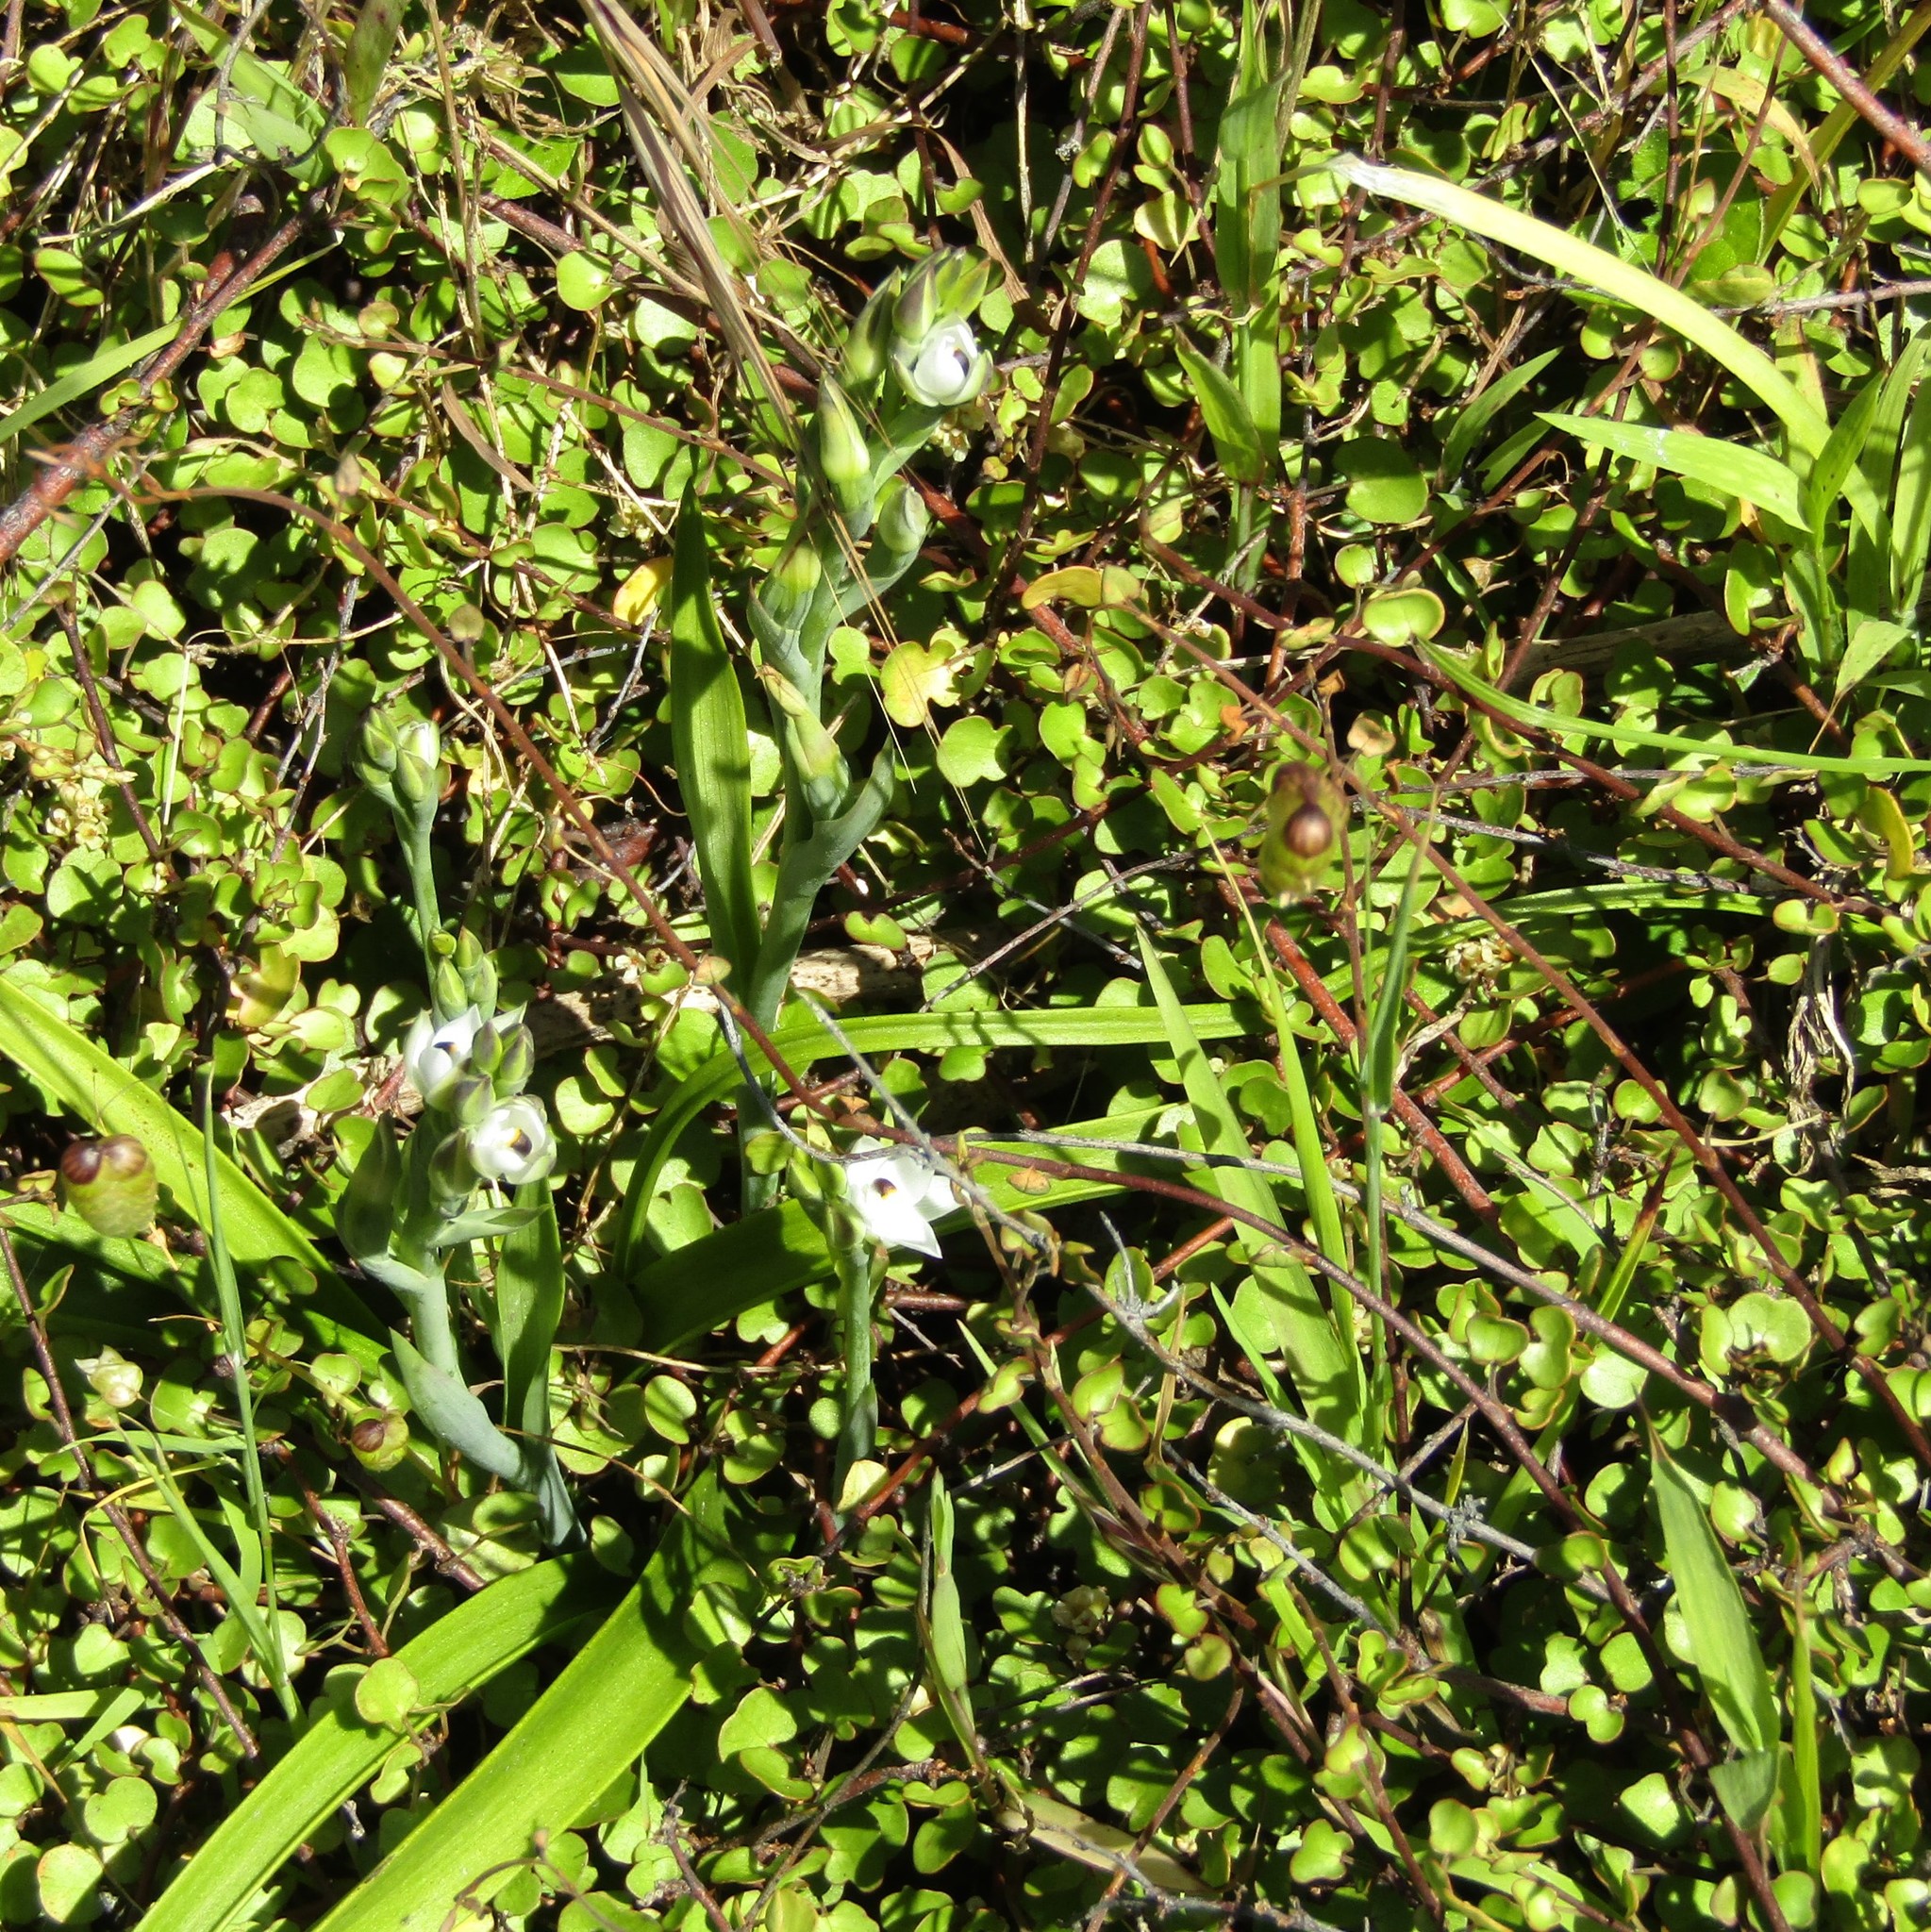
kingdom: Plantae
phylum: Tracheophyta
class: Liliopsida
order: Asparagales
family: Orchidaceae
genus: Thelymitra
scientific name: Thelymitra longifolia
